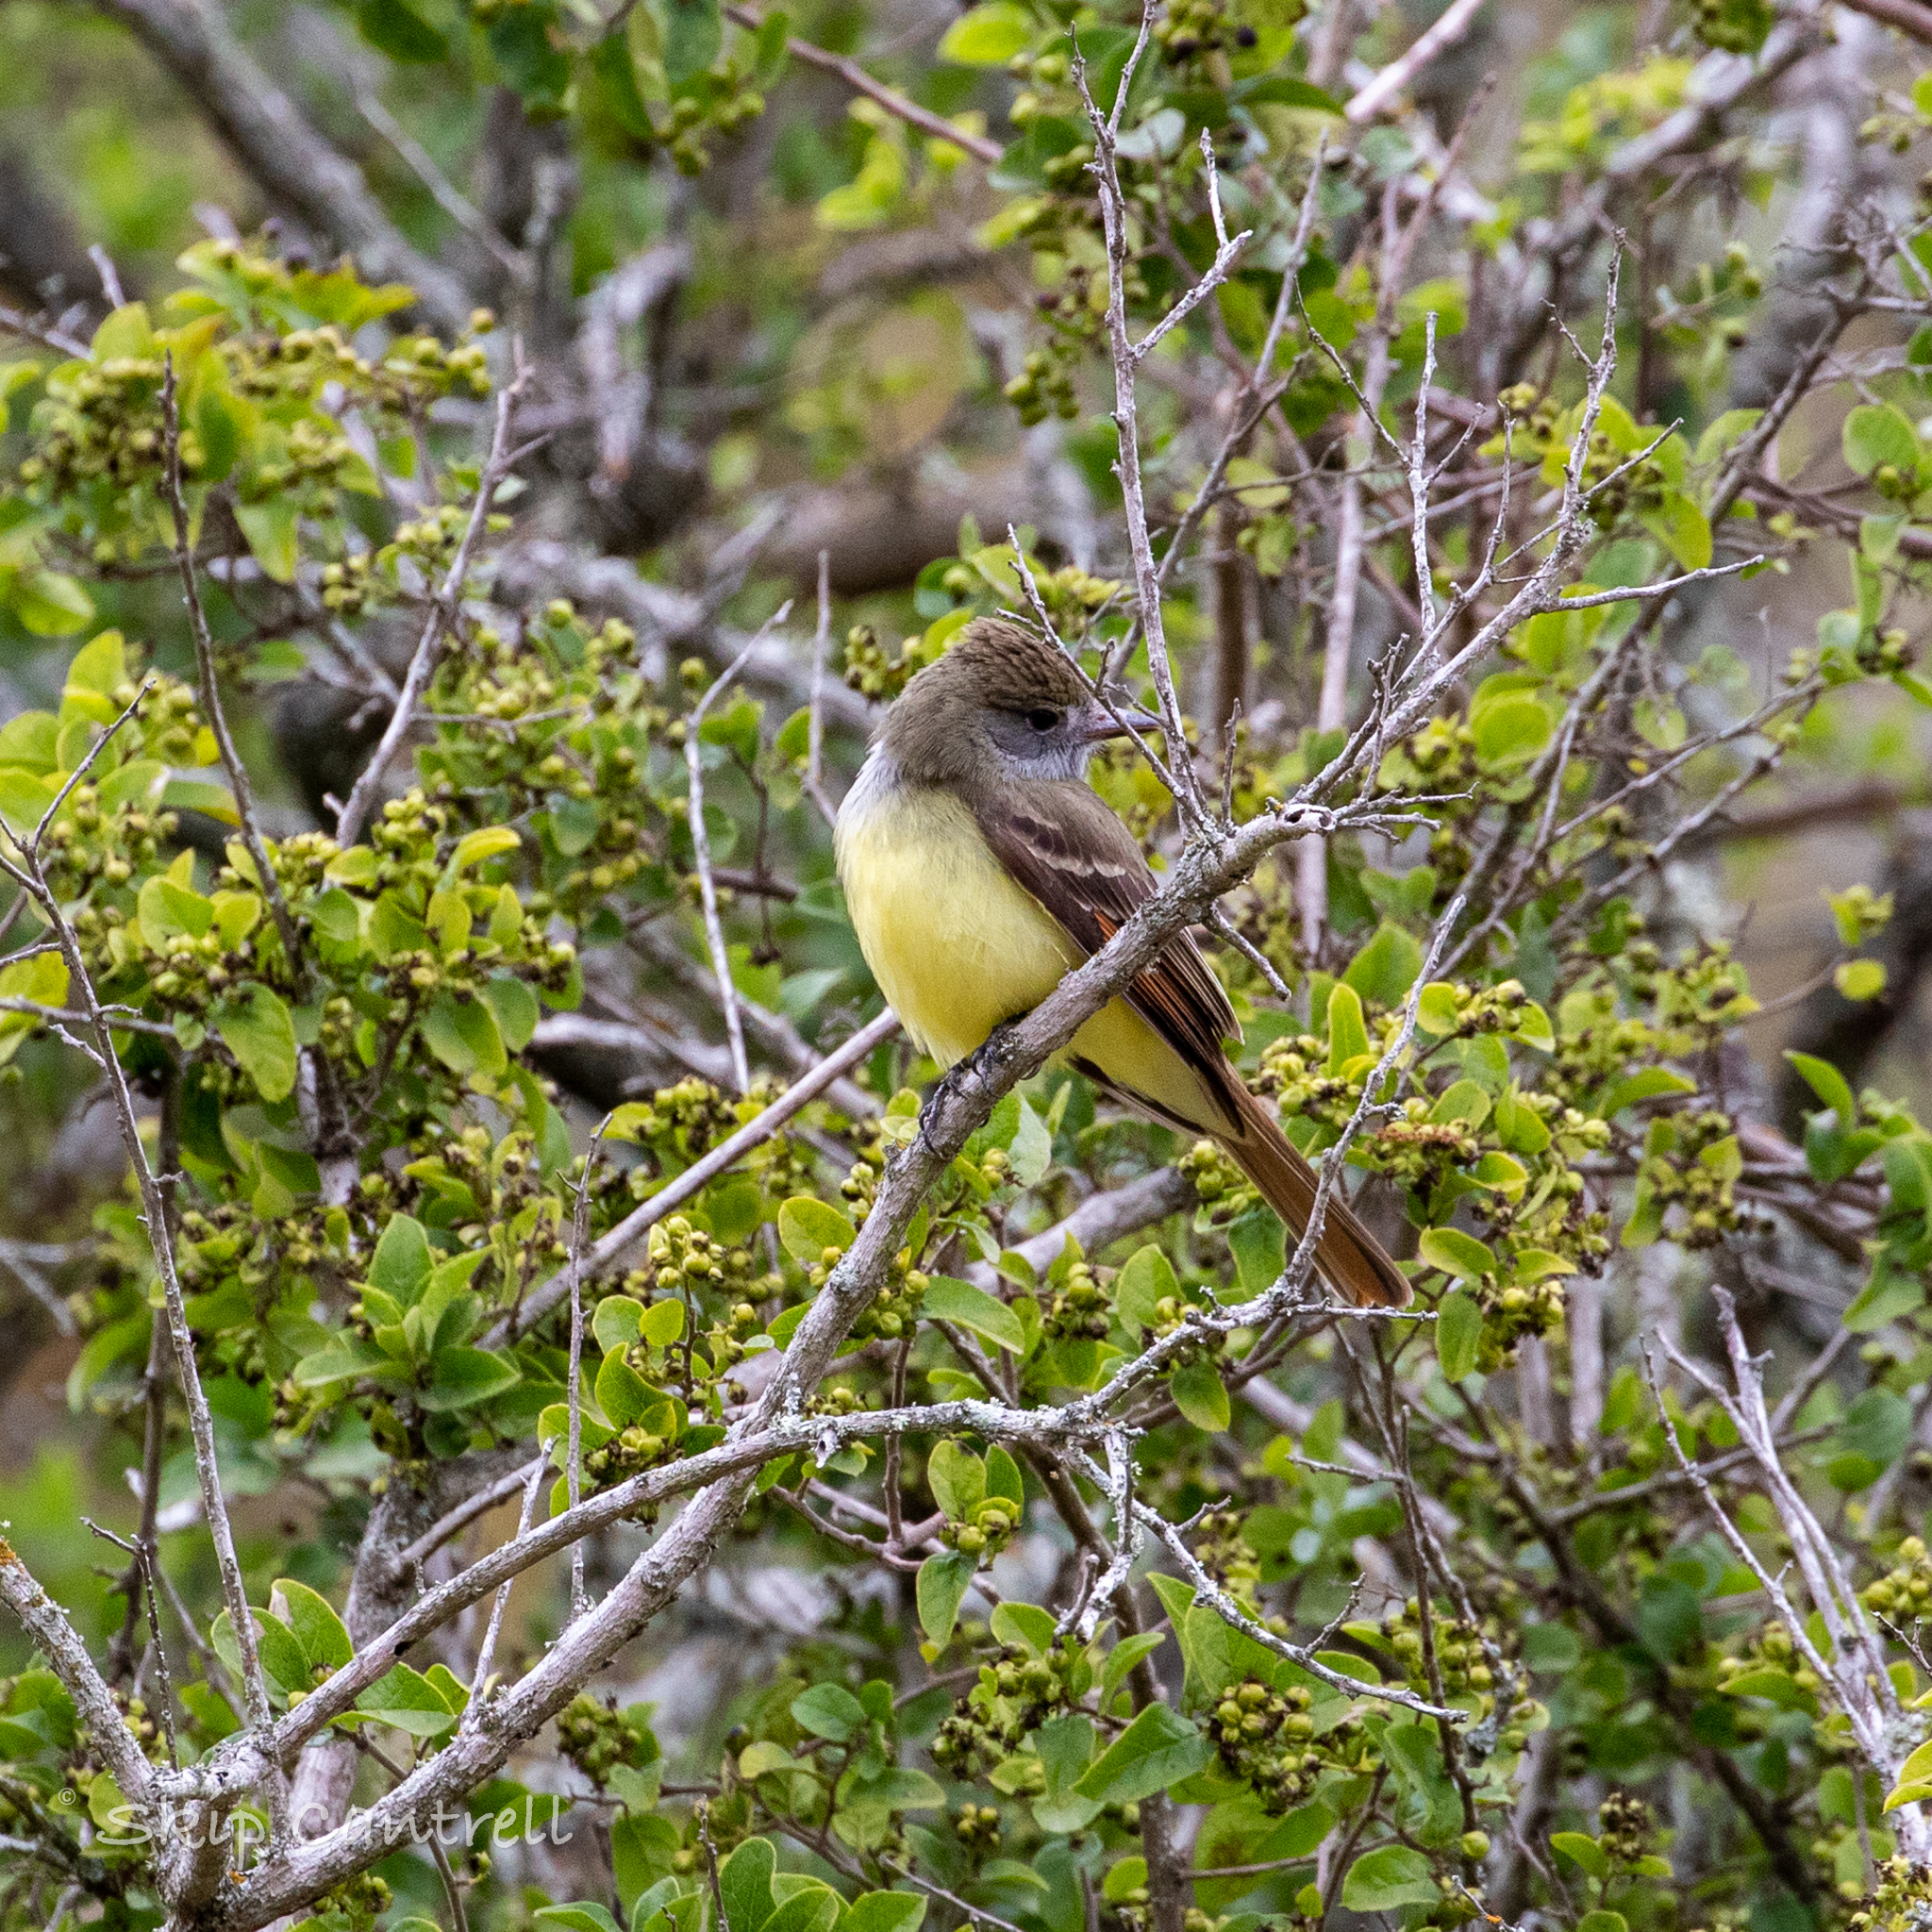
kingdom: Animalia
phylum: Chordata
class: Aves
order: Passeriformes
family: Tyrannidae
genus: Myiarchus
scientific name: Myiarchus crinitus
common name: Great crested flycatcher
